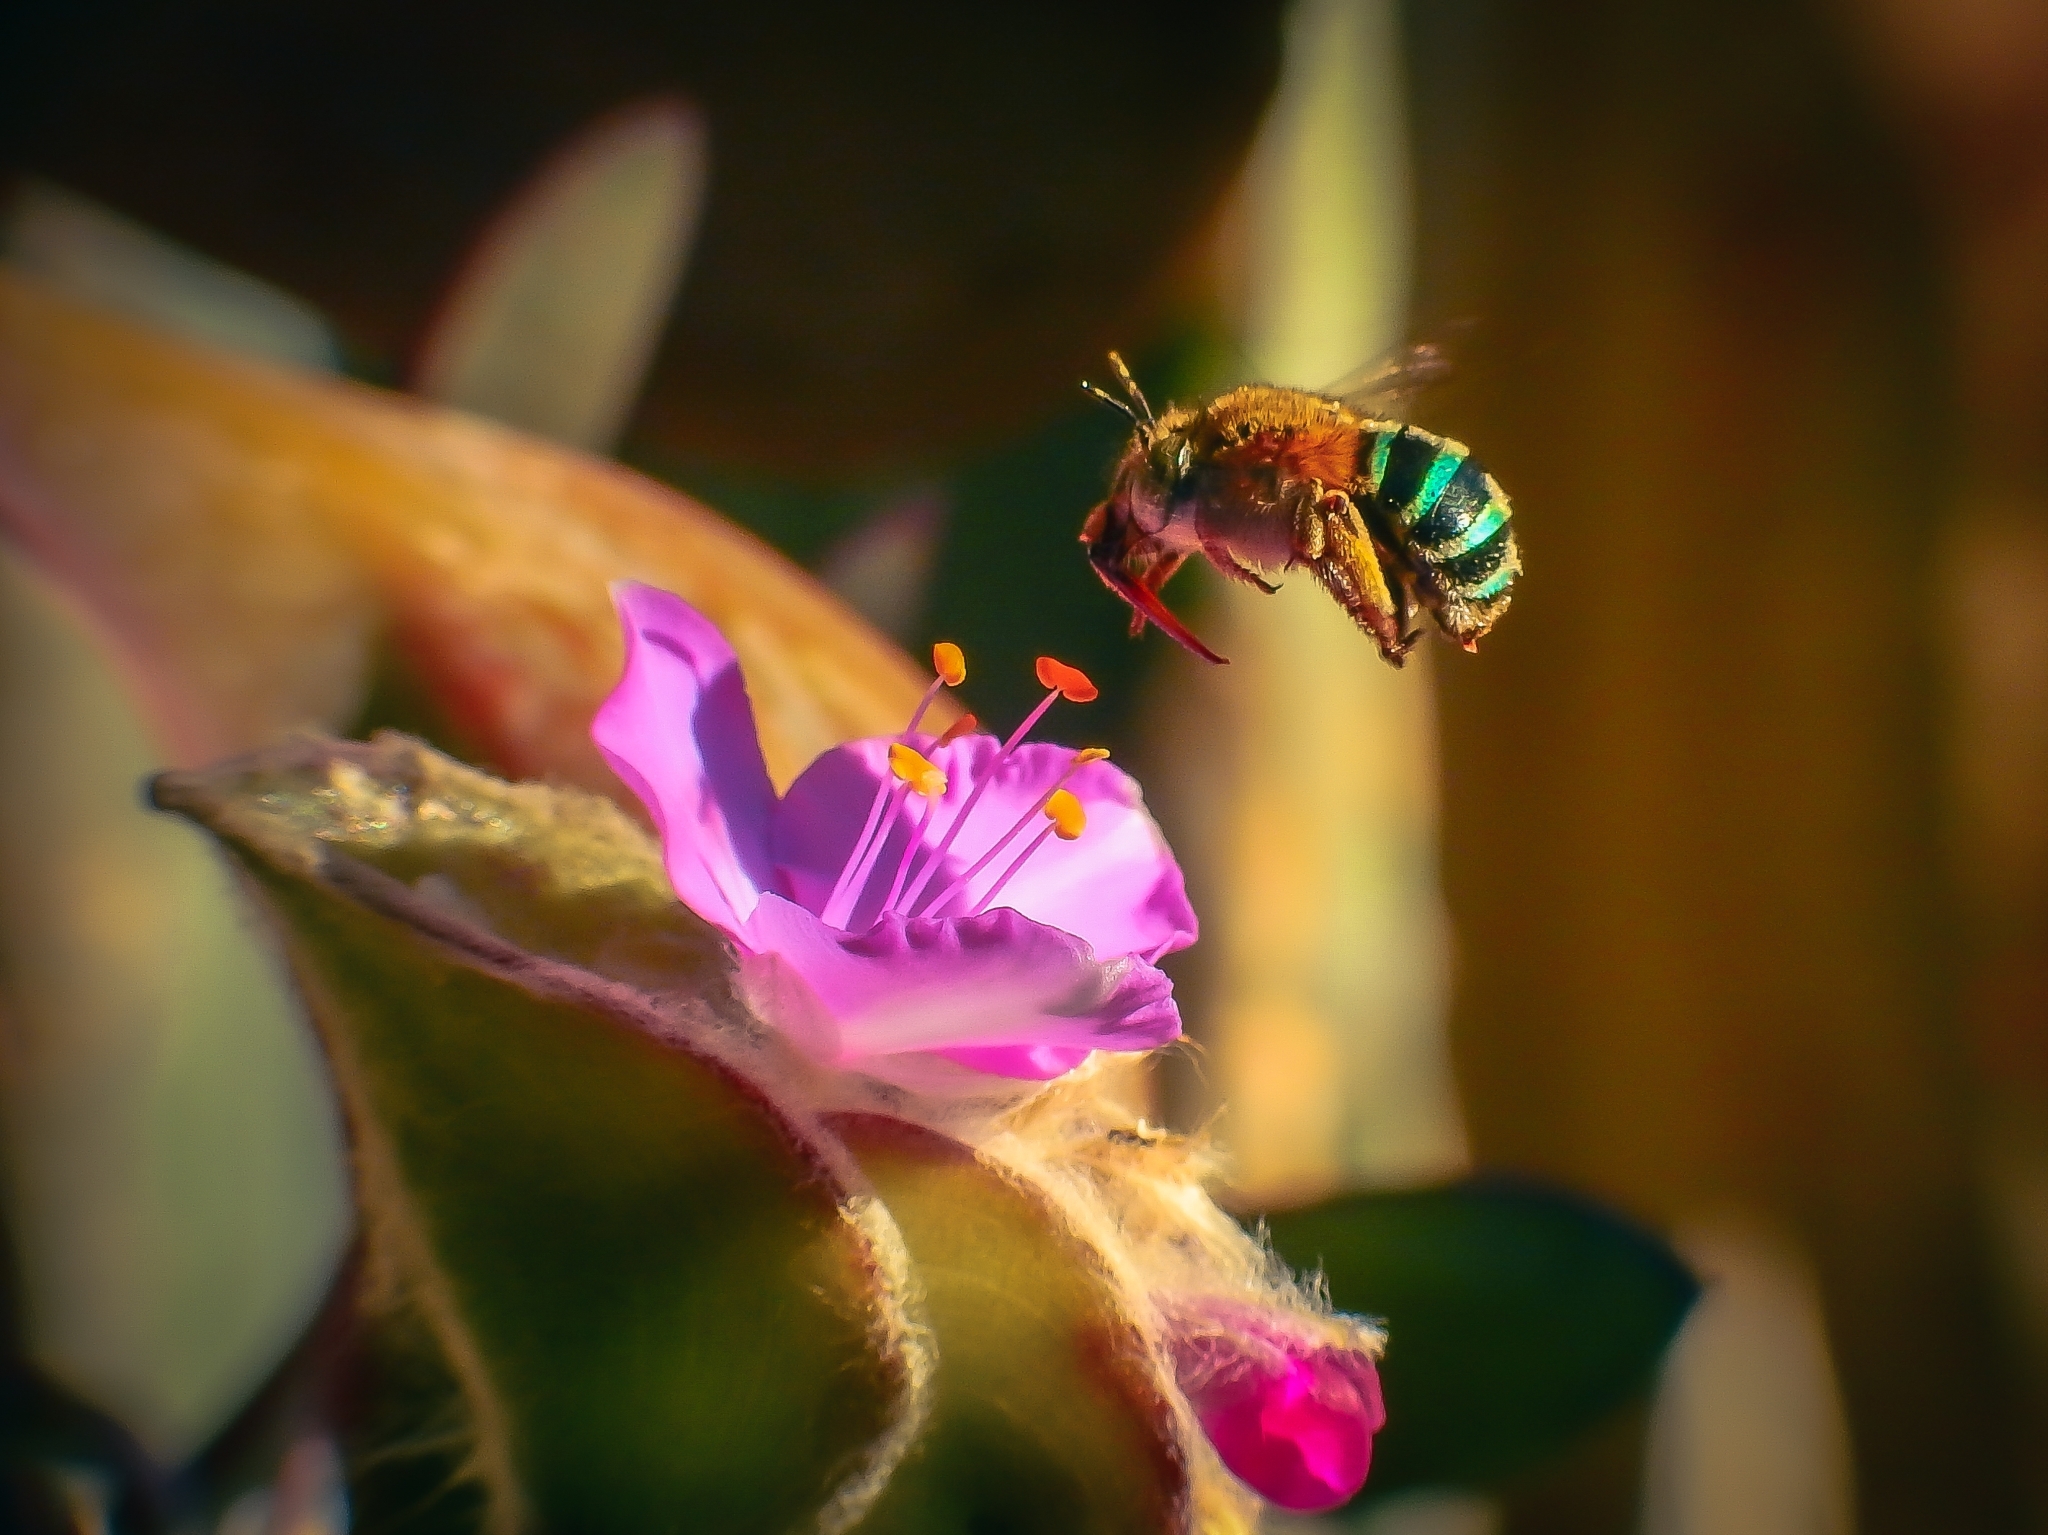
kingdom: Animalia
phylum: Arthropoda
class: Insecta
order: Hymenoptera
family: Apidae
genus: Amegilla
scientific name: Amegilla andrewsi
